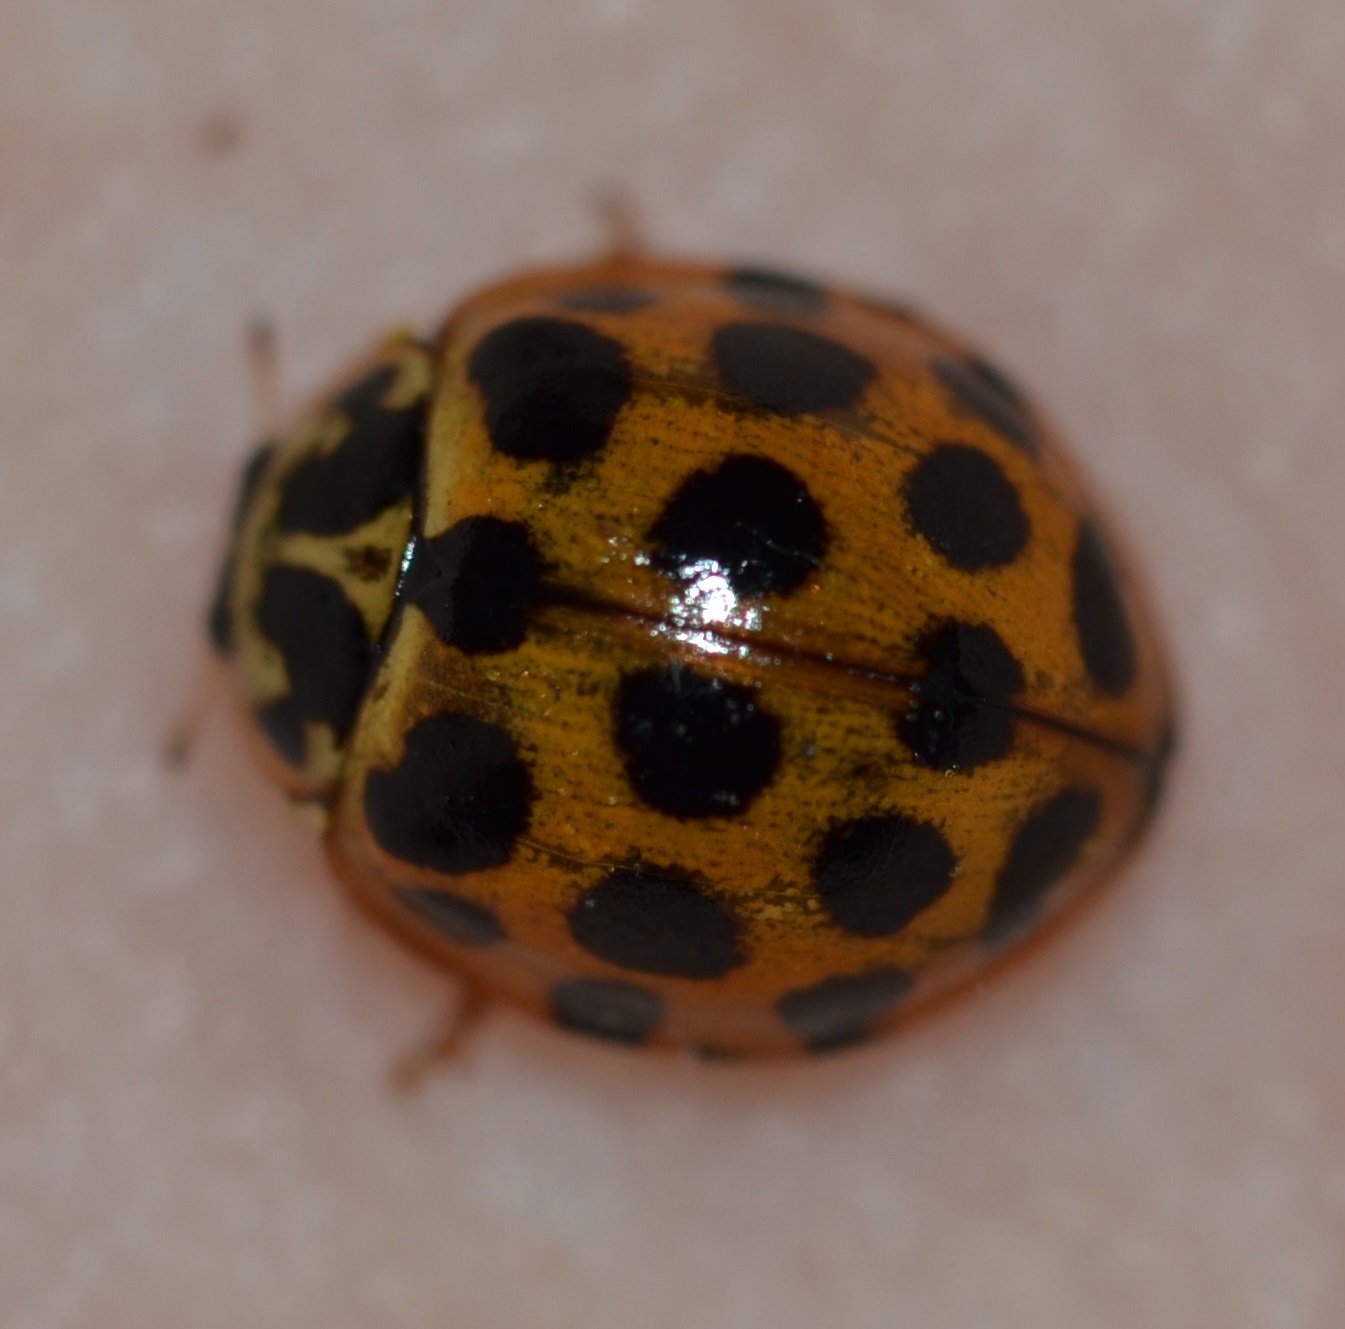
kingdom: Animalia
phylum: Arthropoda
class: Insecta
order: Coleoptera
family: Coccinellidae
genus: Harmonia
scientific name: Harmonia conformis
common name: Common spotted ladybird beetle
